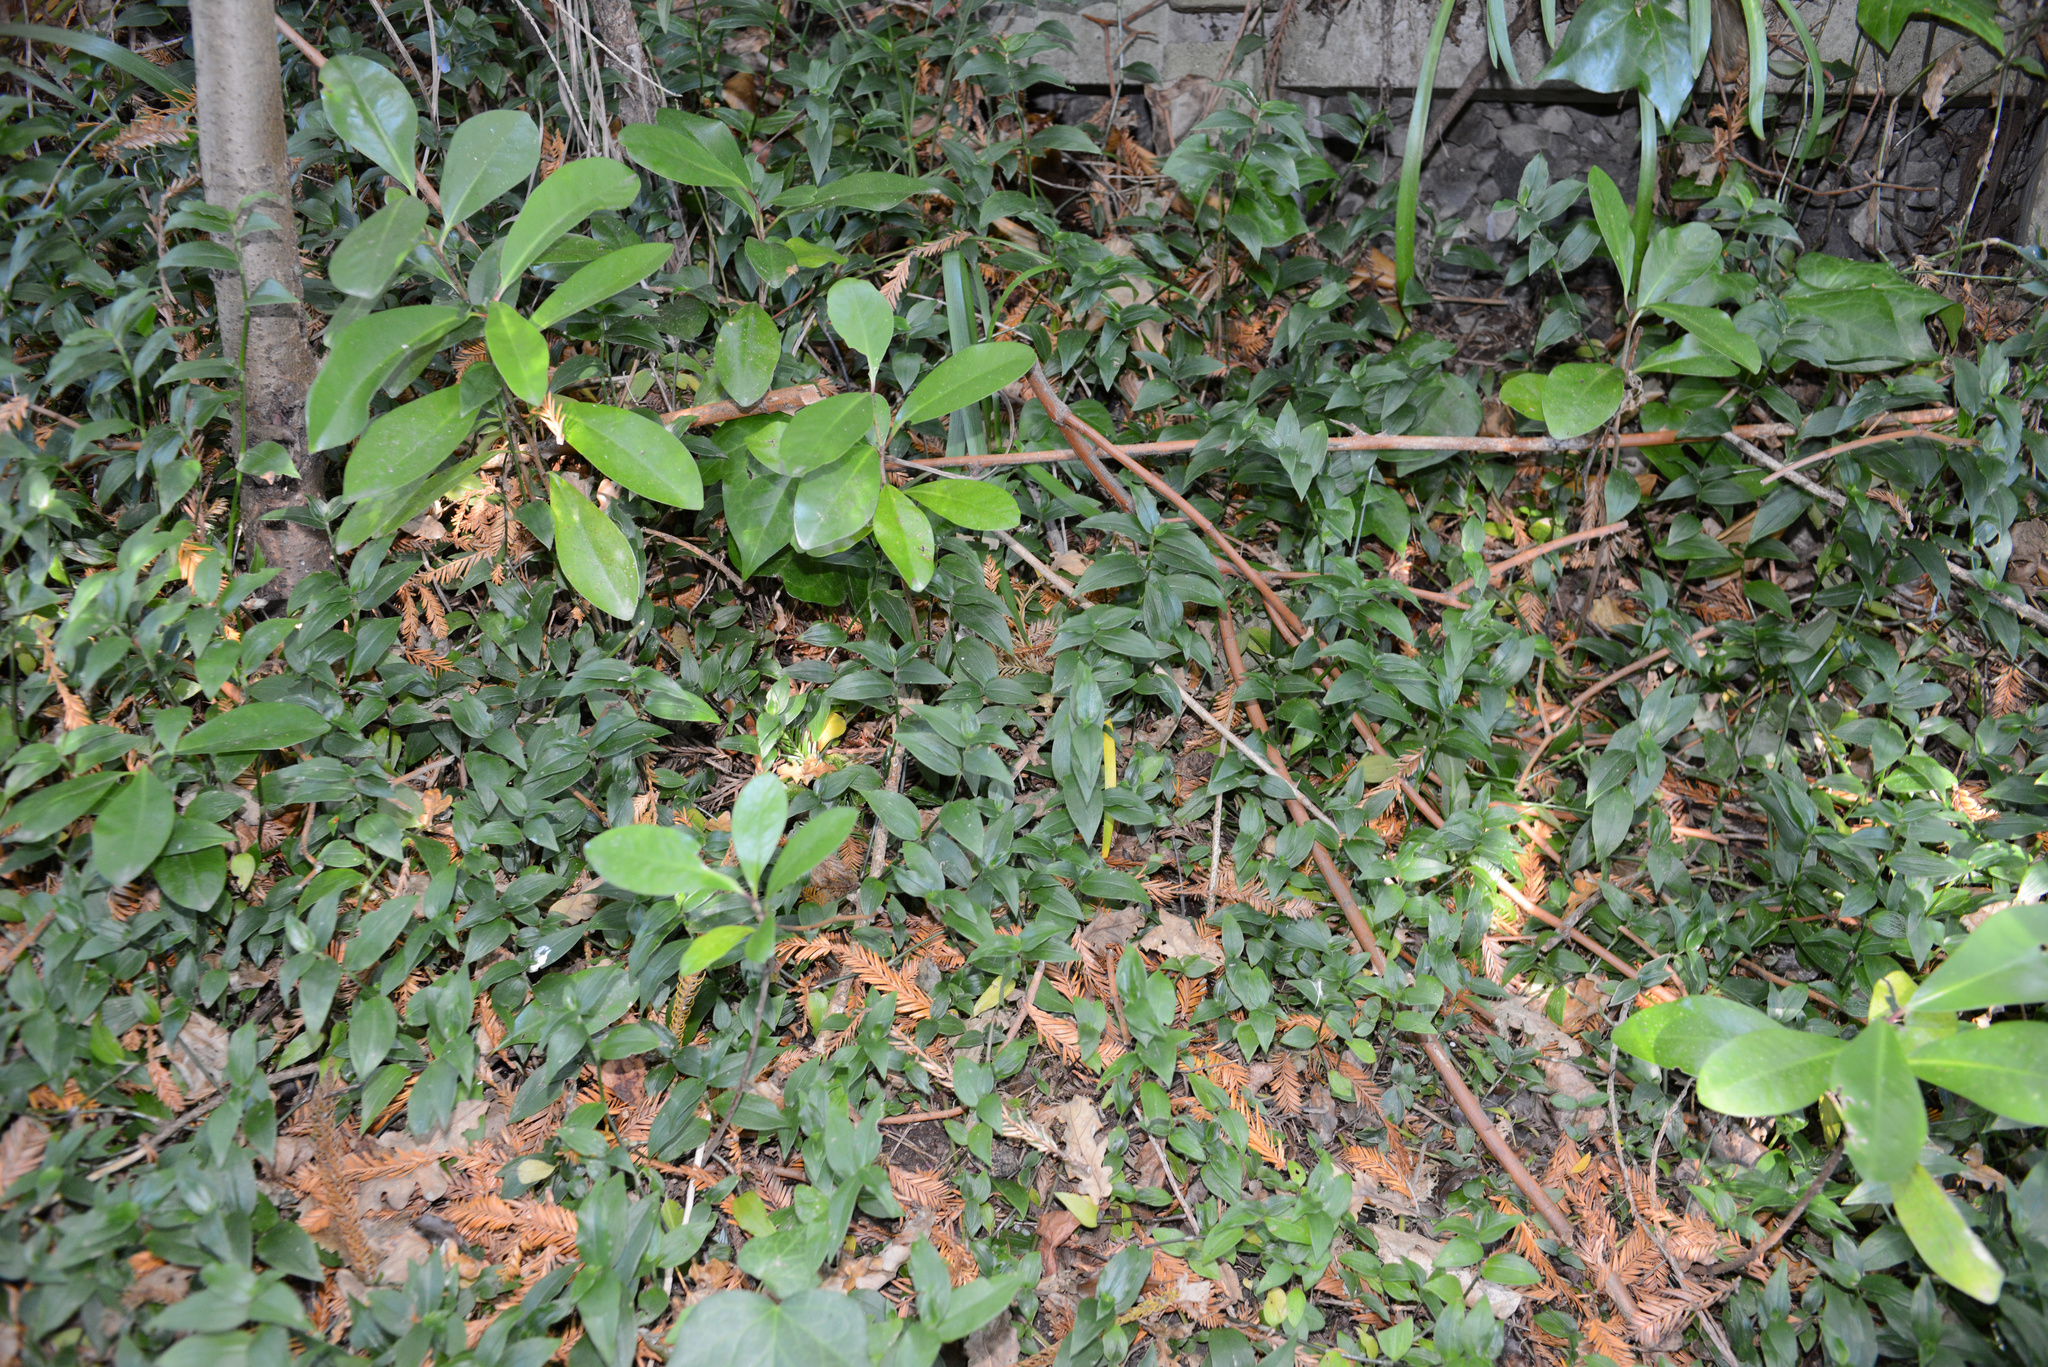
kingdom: Plantae
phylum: Tracheophyta
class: Magnoliopsida
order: Cucurbitales
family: Corynocarpaceae
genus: Corynocarpus
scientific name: Corynocarpus laevigatus
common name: New zealand laurel
